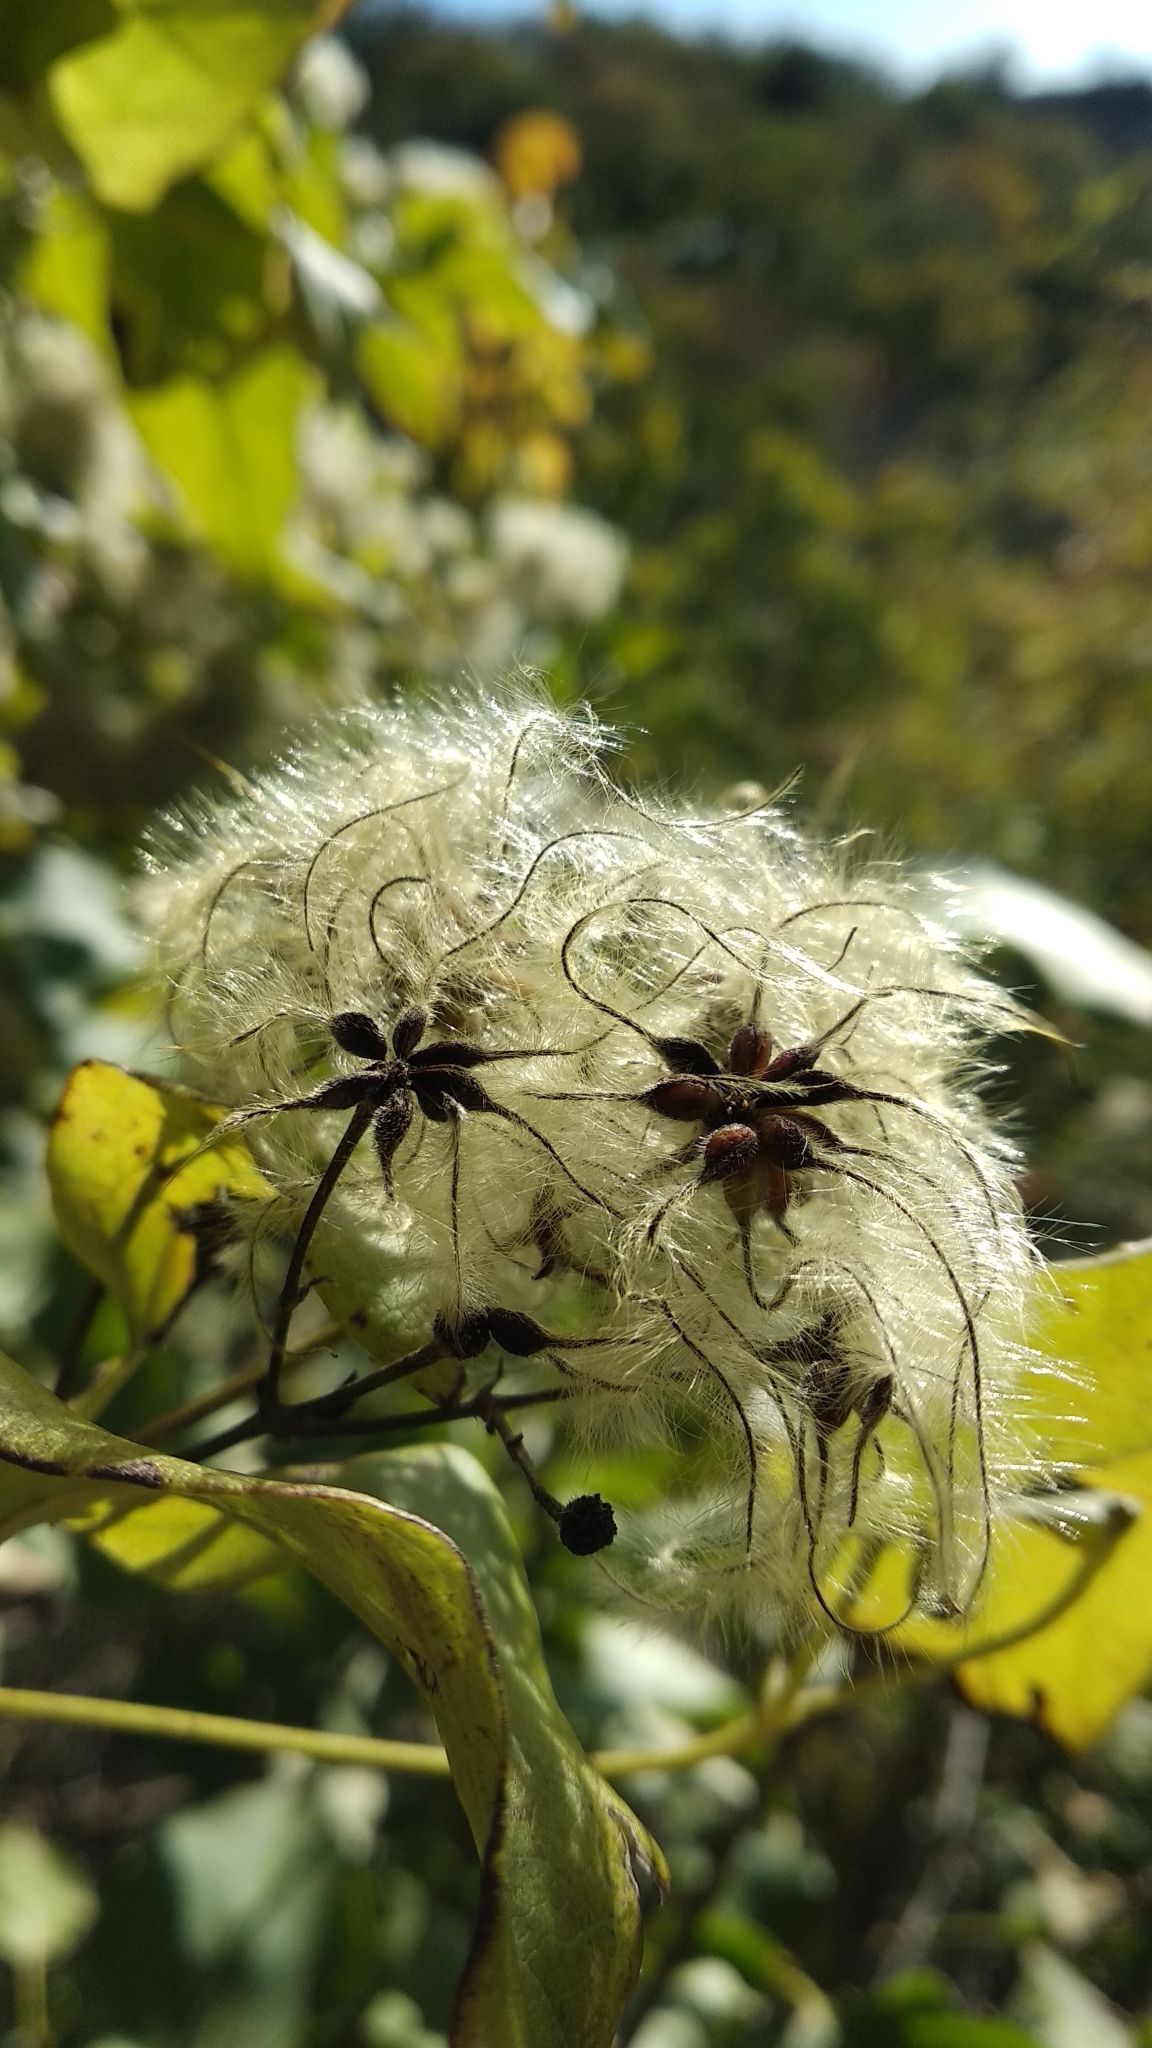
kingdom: Plantae
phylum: Tracheophyta
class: Magnoliopsida
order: Ranunculales
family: Ranunculaceae
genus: Clematis
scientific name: Clematis vitalba
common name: Evergreen clematis
